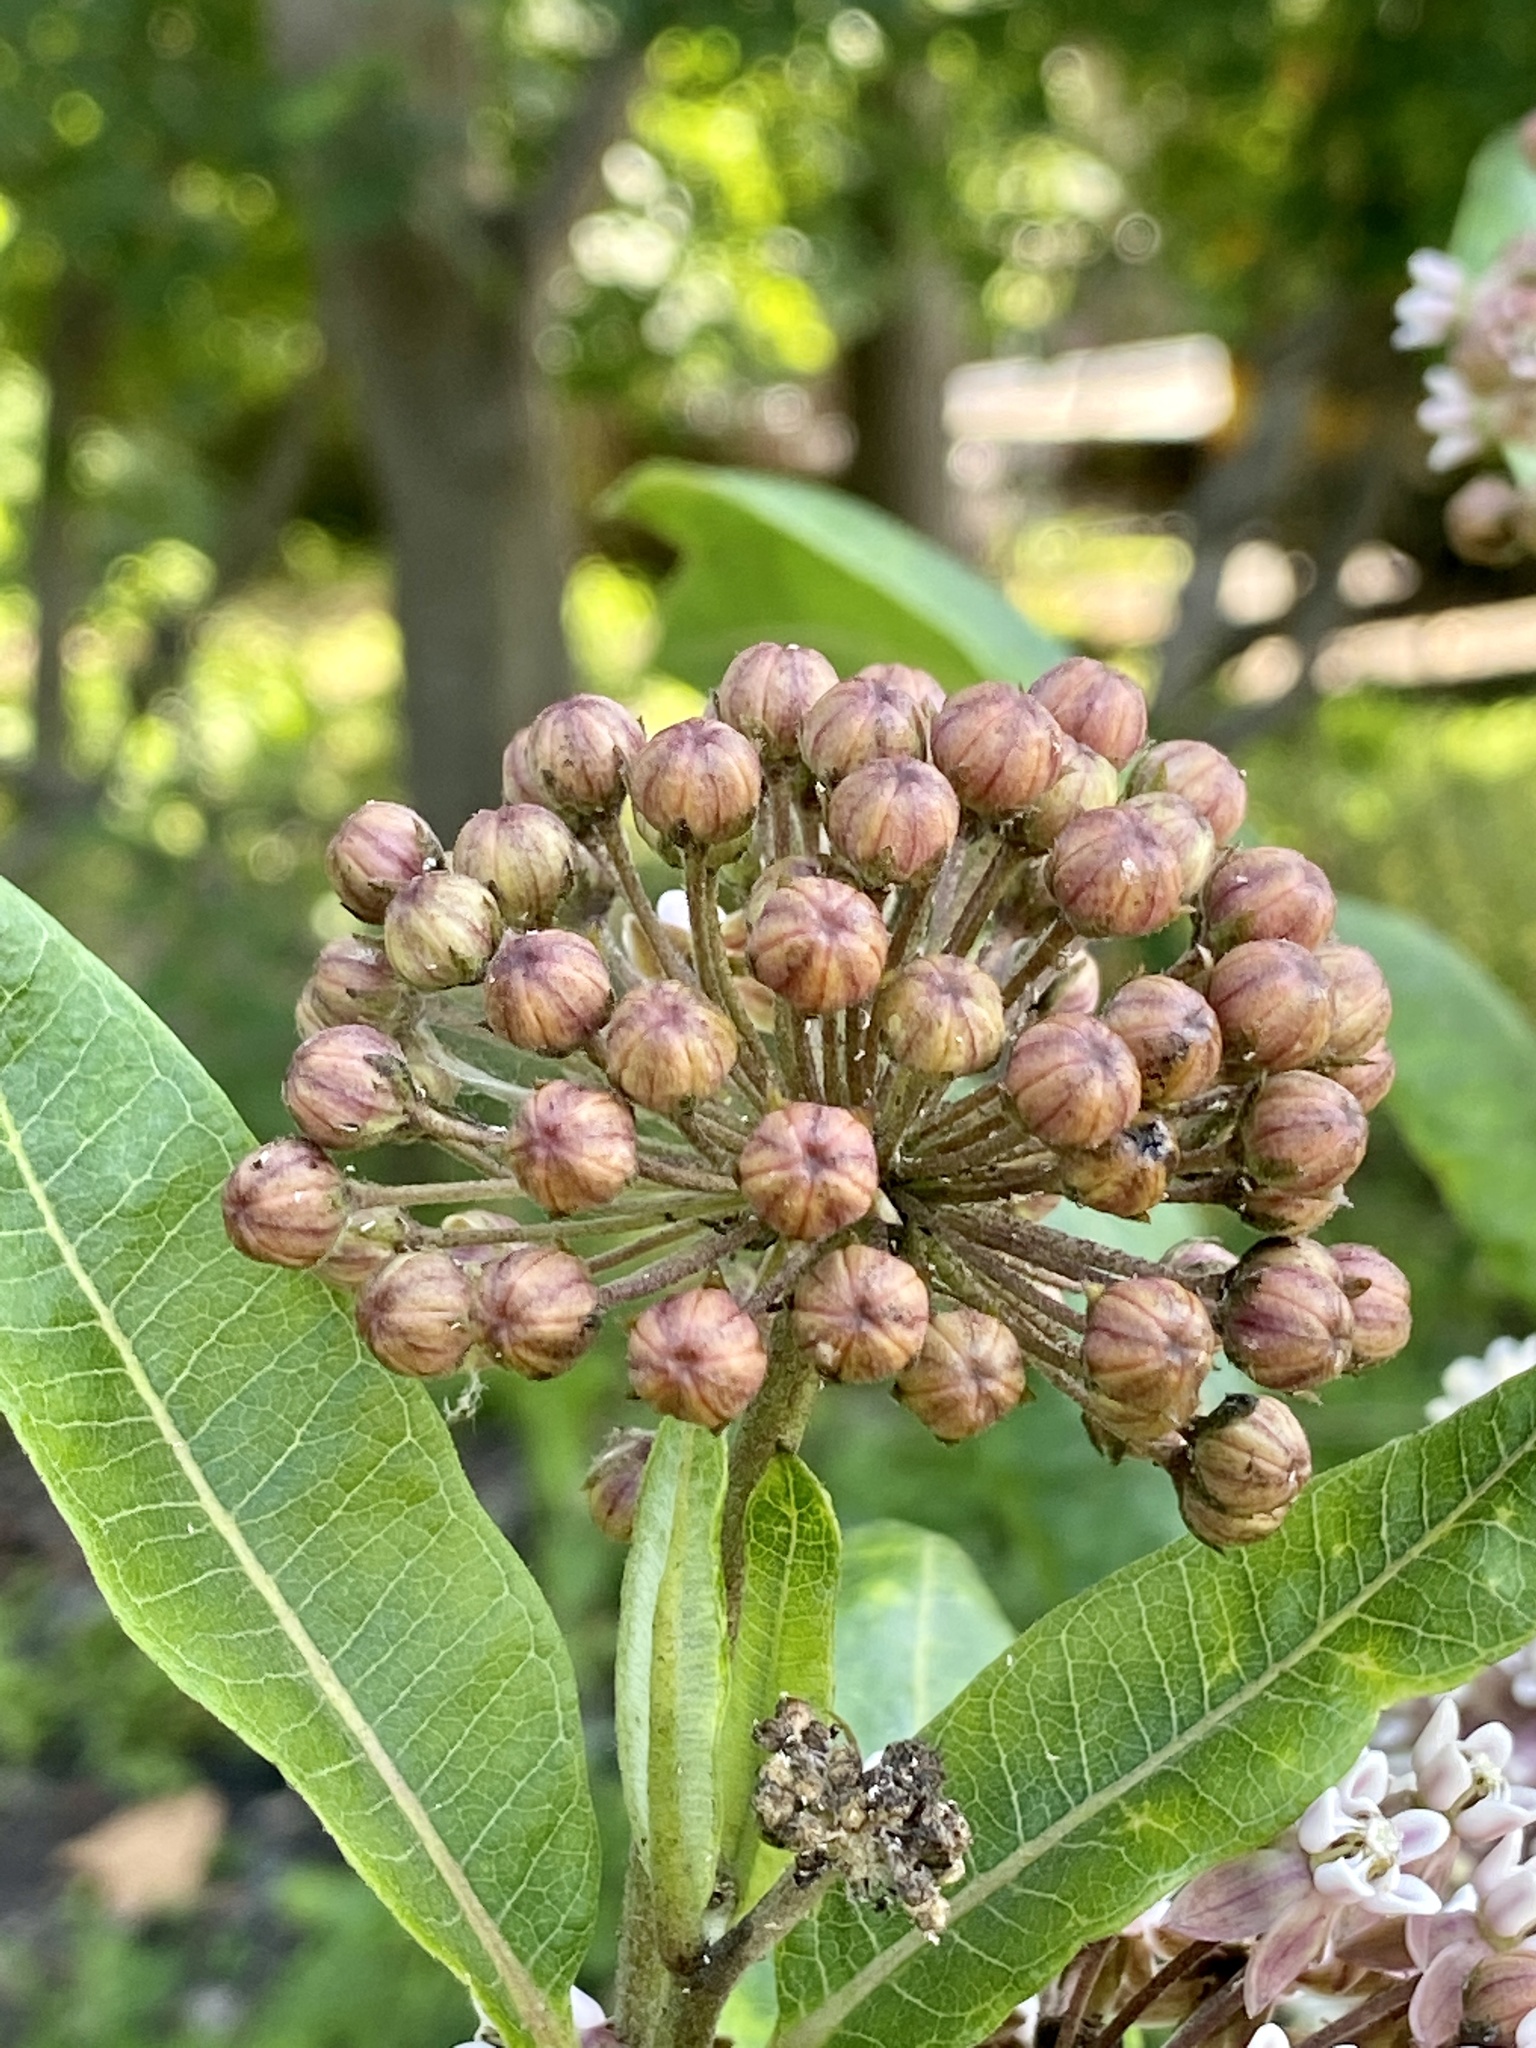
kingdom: Plantae
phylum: Tracheophyta
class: Magnoliopsida
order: Gentianales
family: Apocynaceae
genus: Asclepias
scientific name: Asclepias syriaca
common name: Common milkweed
